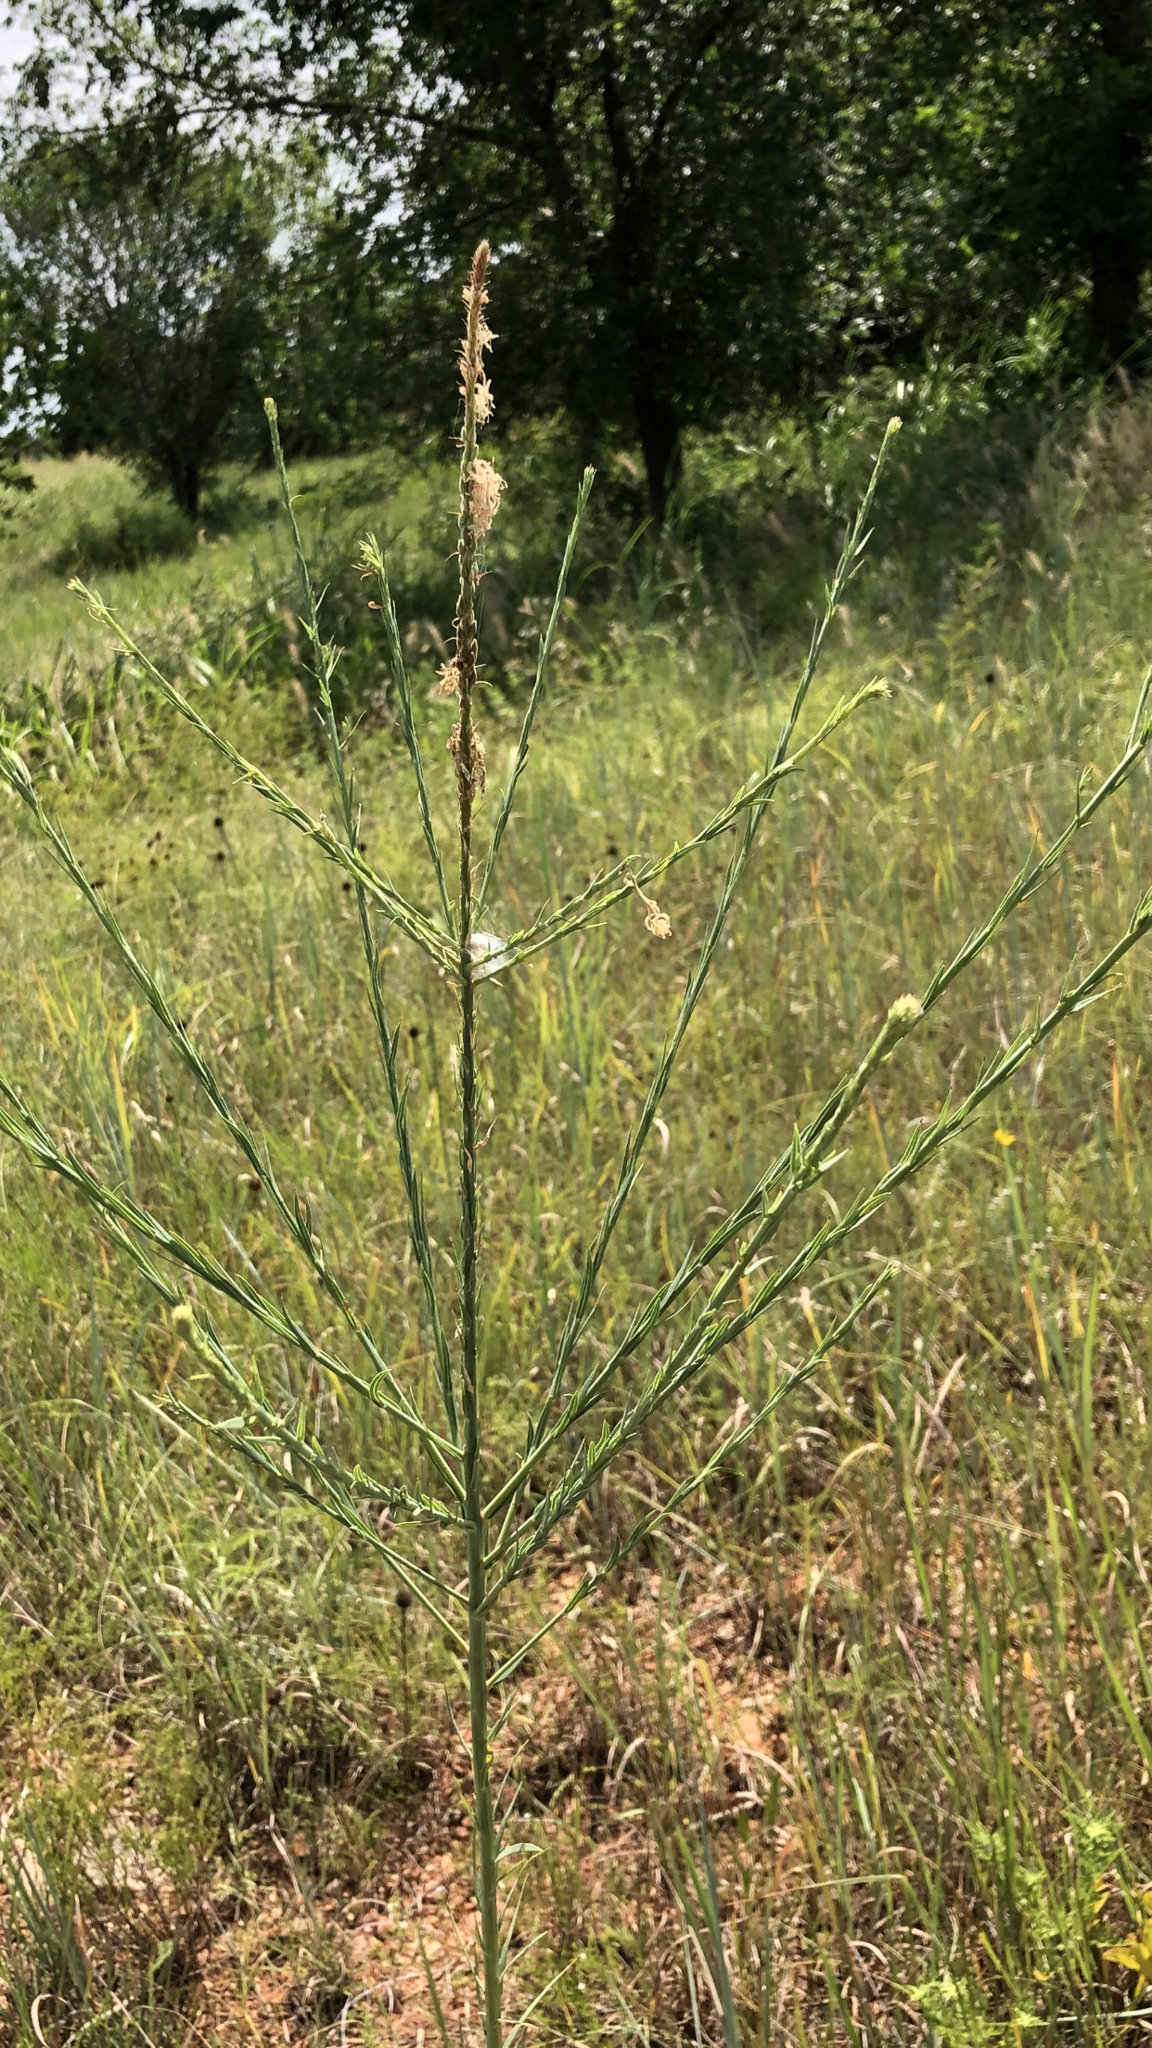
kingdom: Plantae
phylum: Tracheophyta
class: Magnoliopsida
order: Myrtales
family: Onagraceae
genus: Oenothera
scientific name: Oenothera glaucifolia
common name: False gaura
